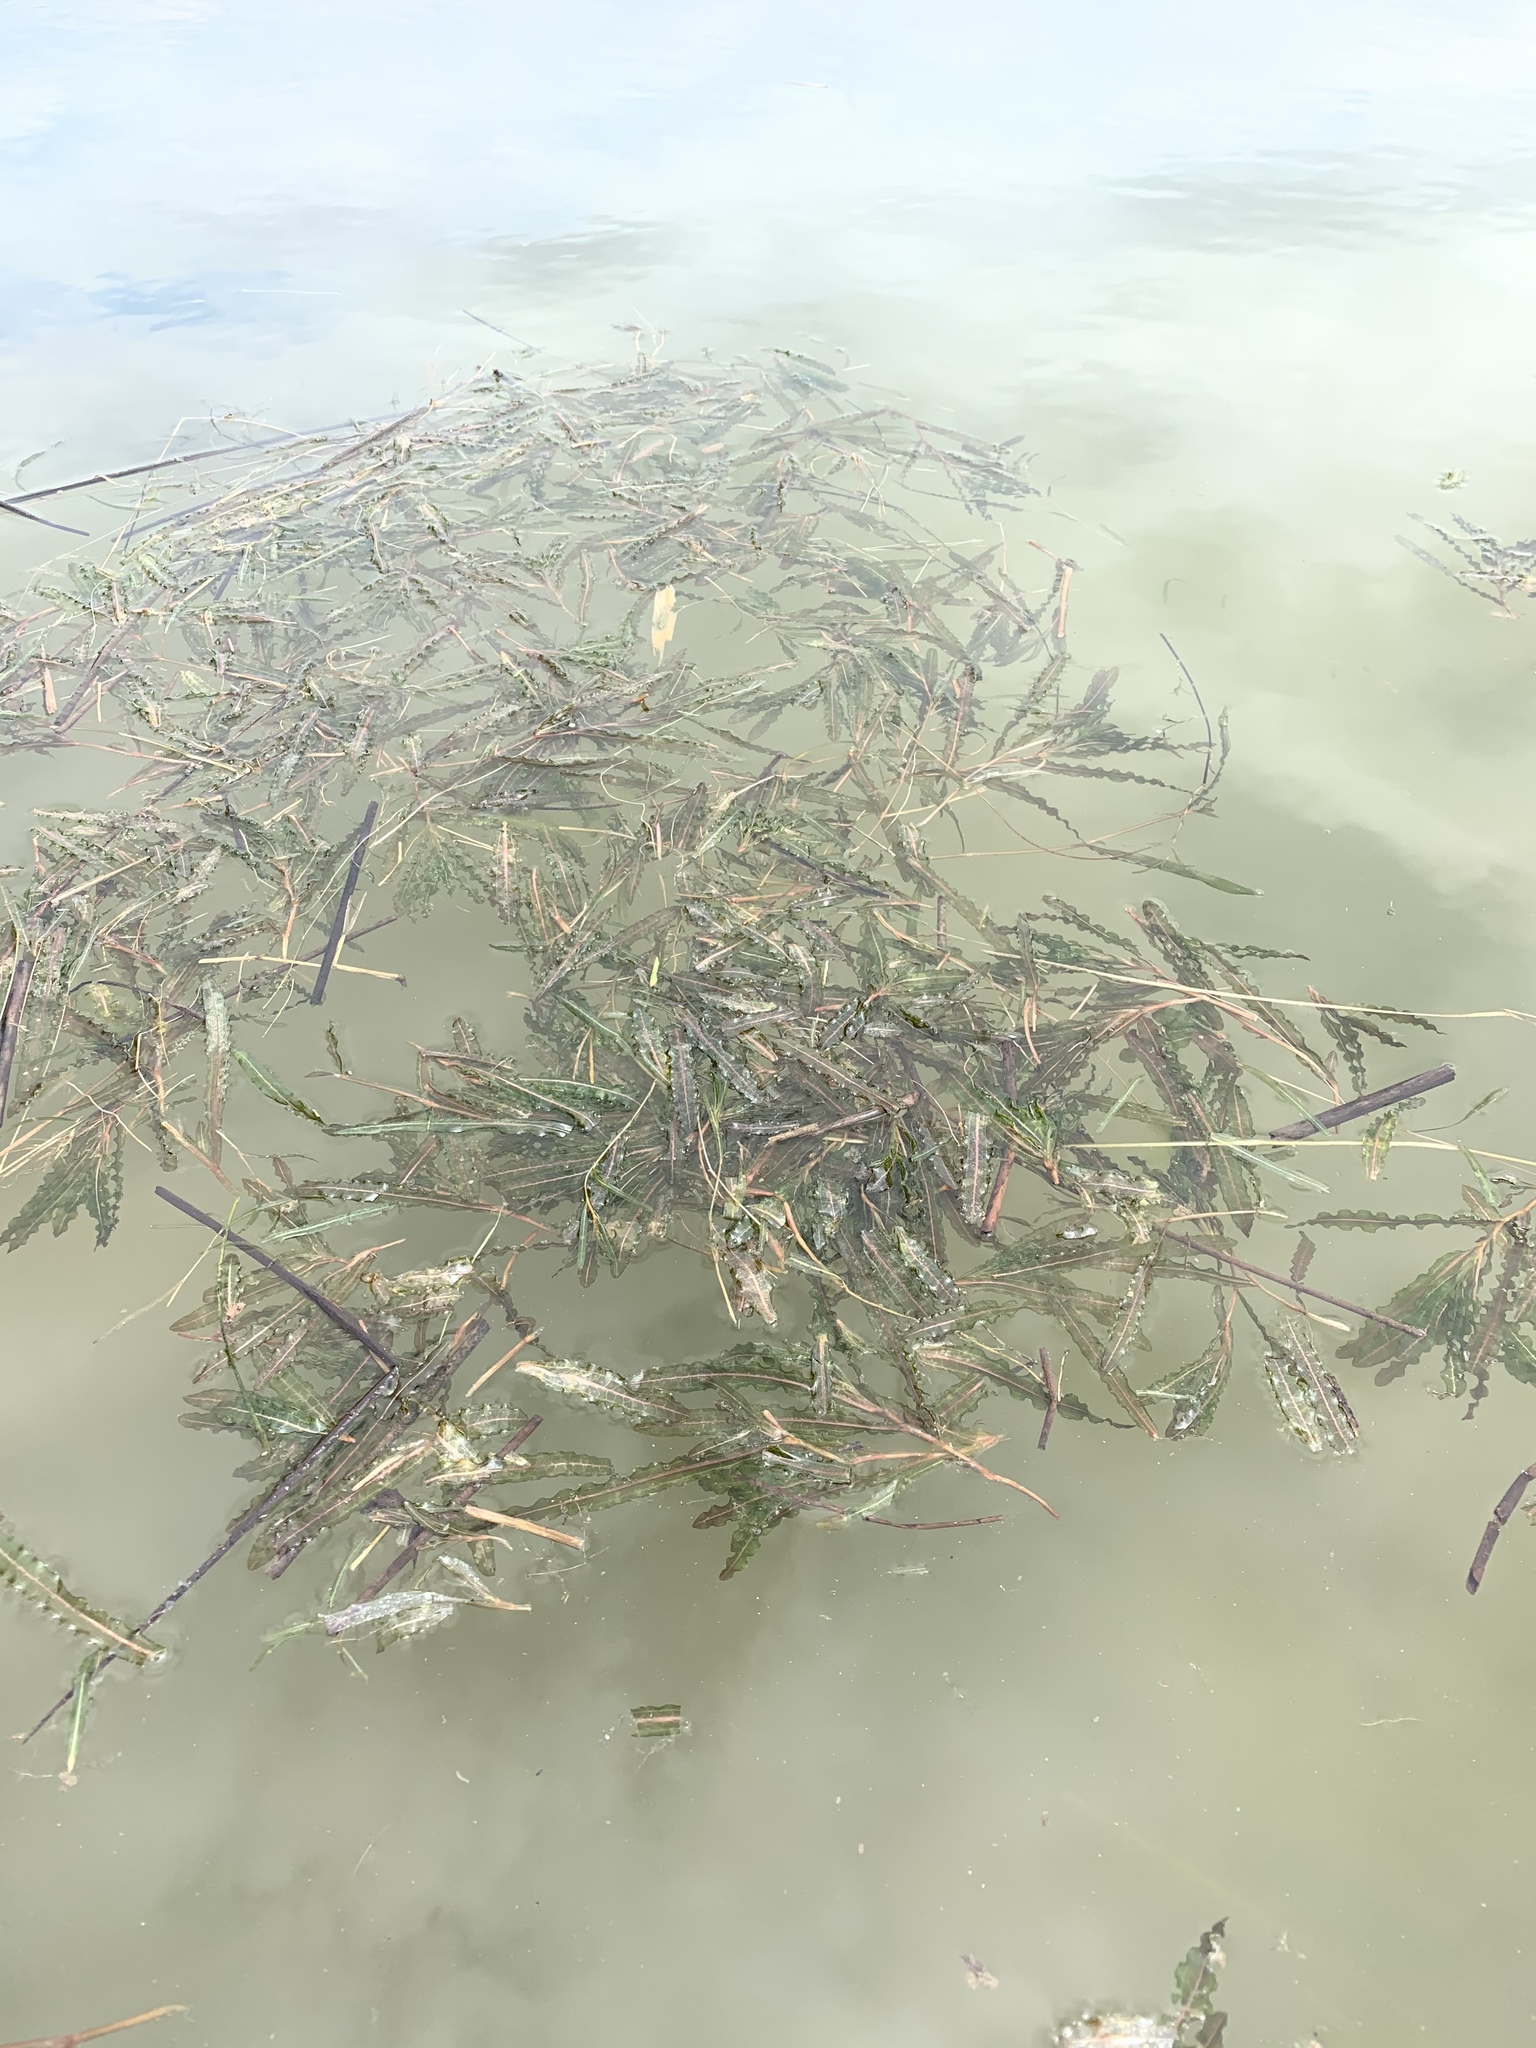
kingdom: Plantae
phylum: Tracheophyta
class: Liliopsida
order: Alismatales
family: Potamogetonaceae
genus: Potamogeton
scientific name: Potamogeton crispus
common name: Curled pondweed
